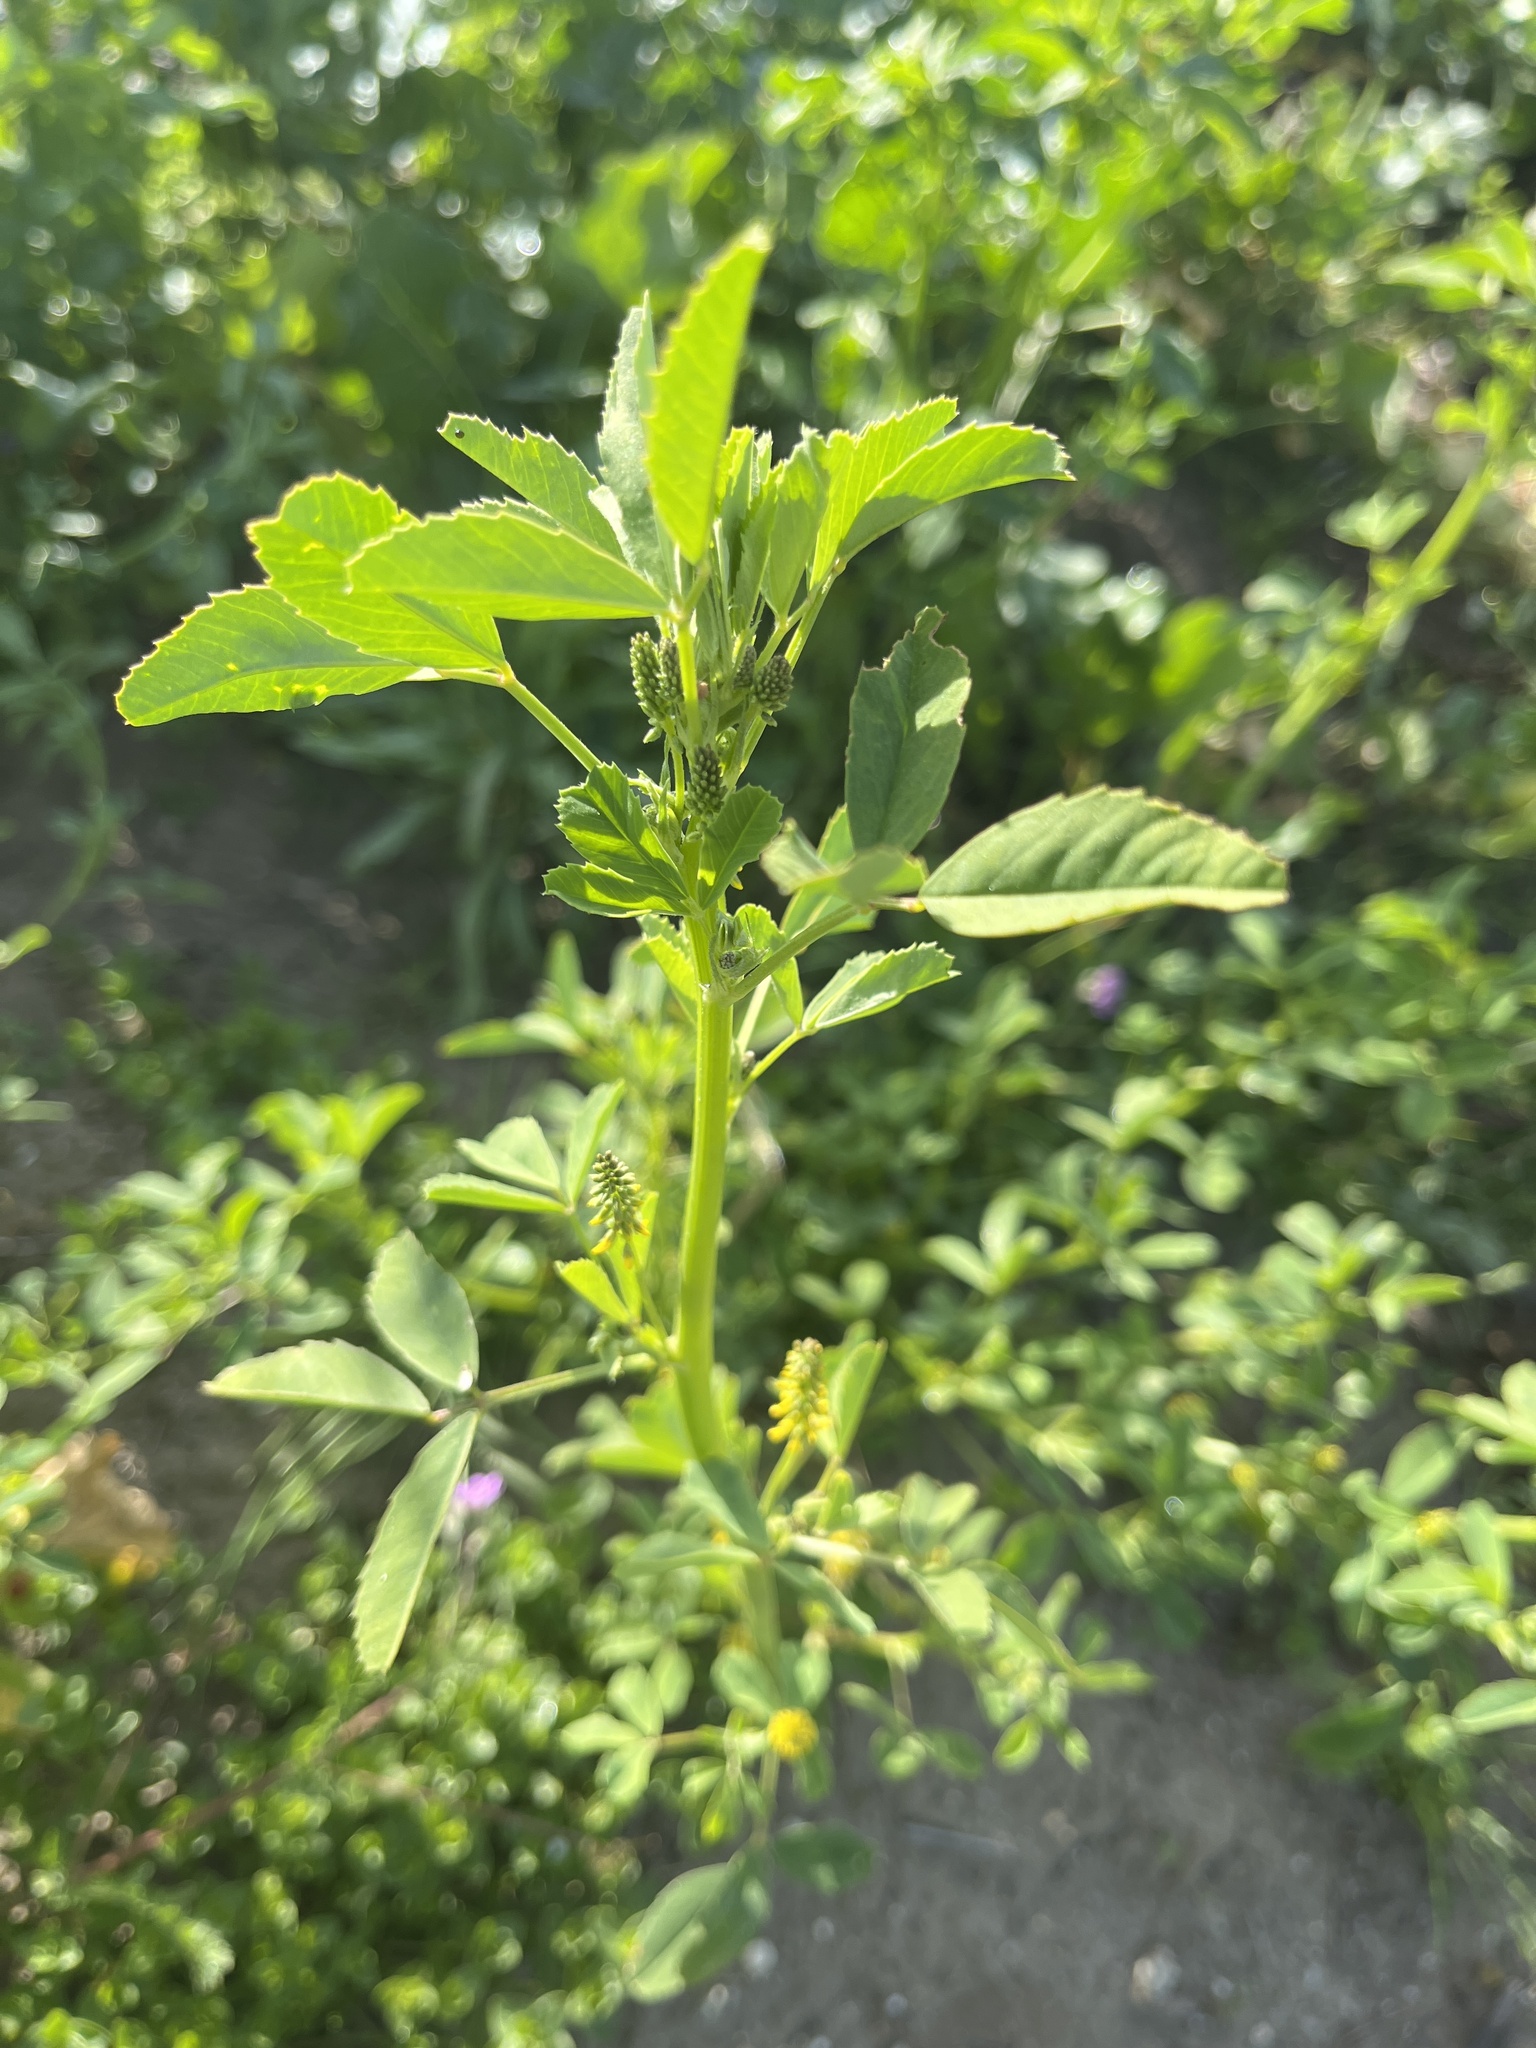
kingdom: Plantae
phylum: Tracheophyta
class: Magnoliopsida
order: Fabales
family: Fabaceae
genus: Melilotus
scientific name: Melilotus indicus
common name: Small melilot
